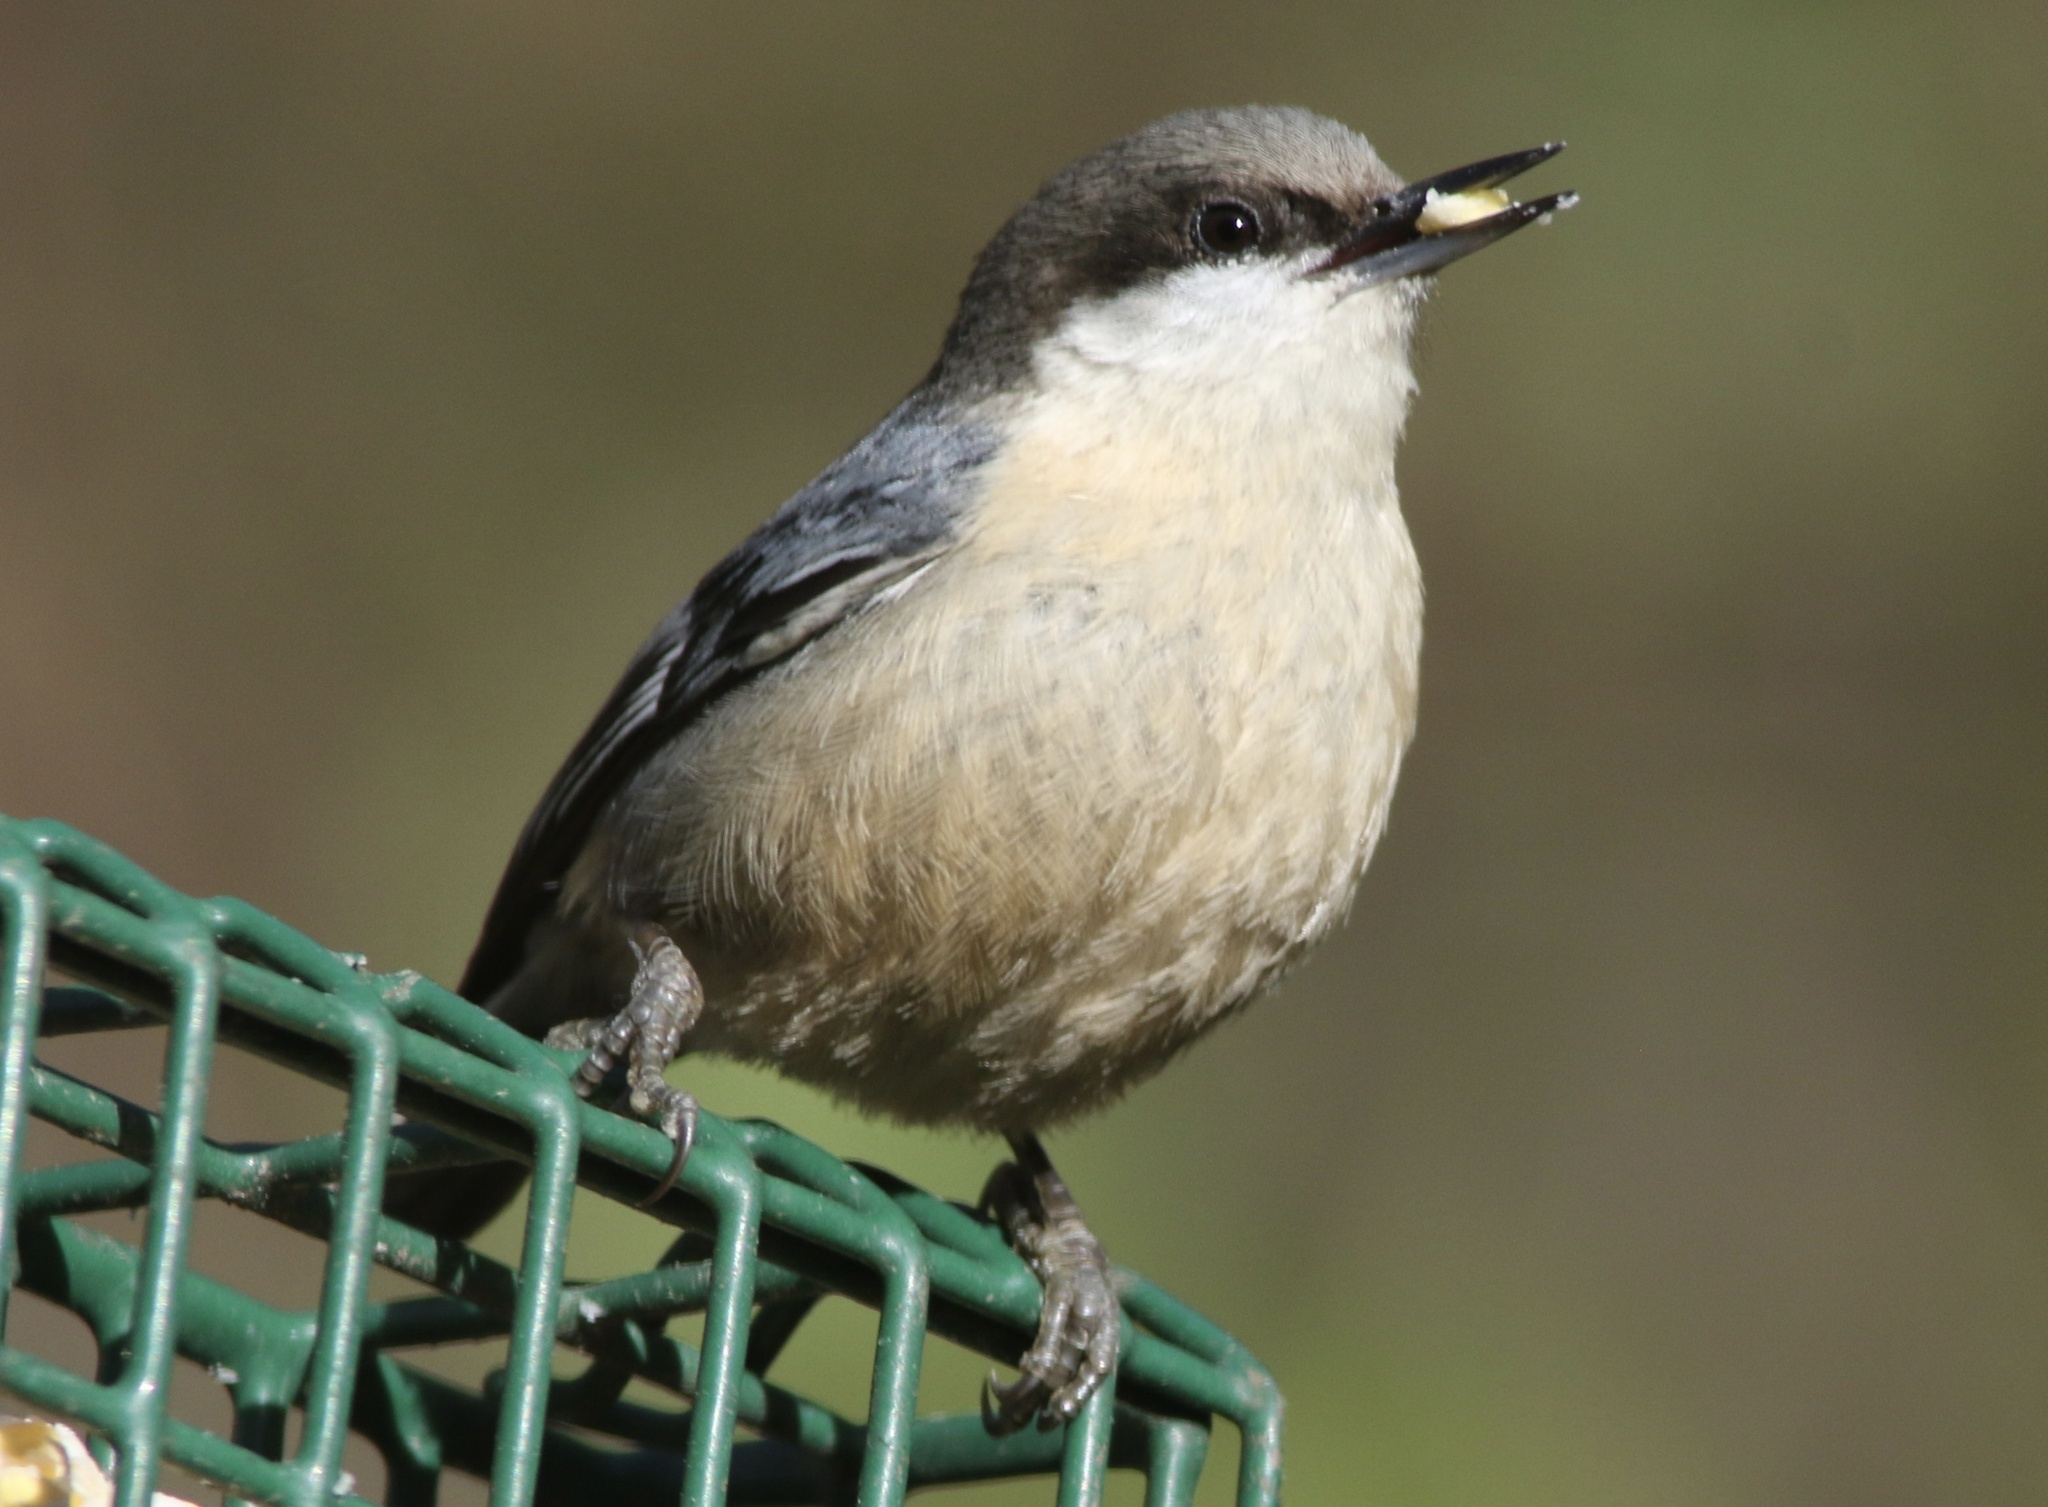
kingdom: Animalia
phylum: Chordata
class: Aves
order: Passeriformes
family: Sittidae
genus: Sitta
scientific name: Sitta pygmaea
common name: Pygmy nuthatch
